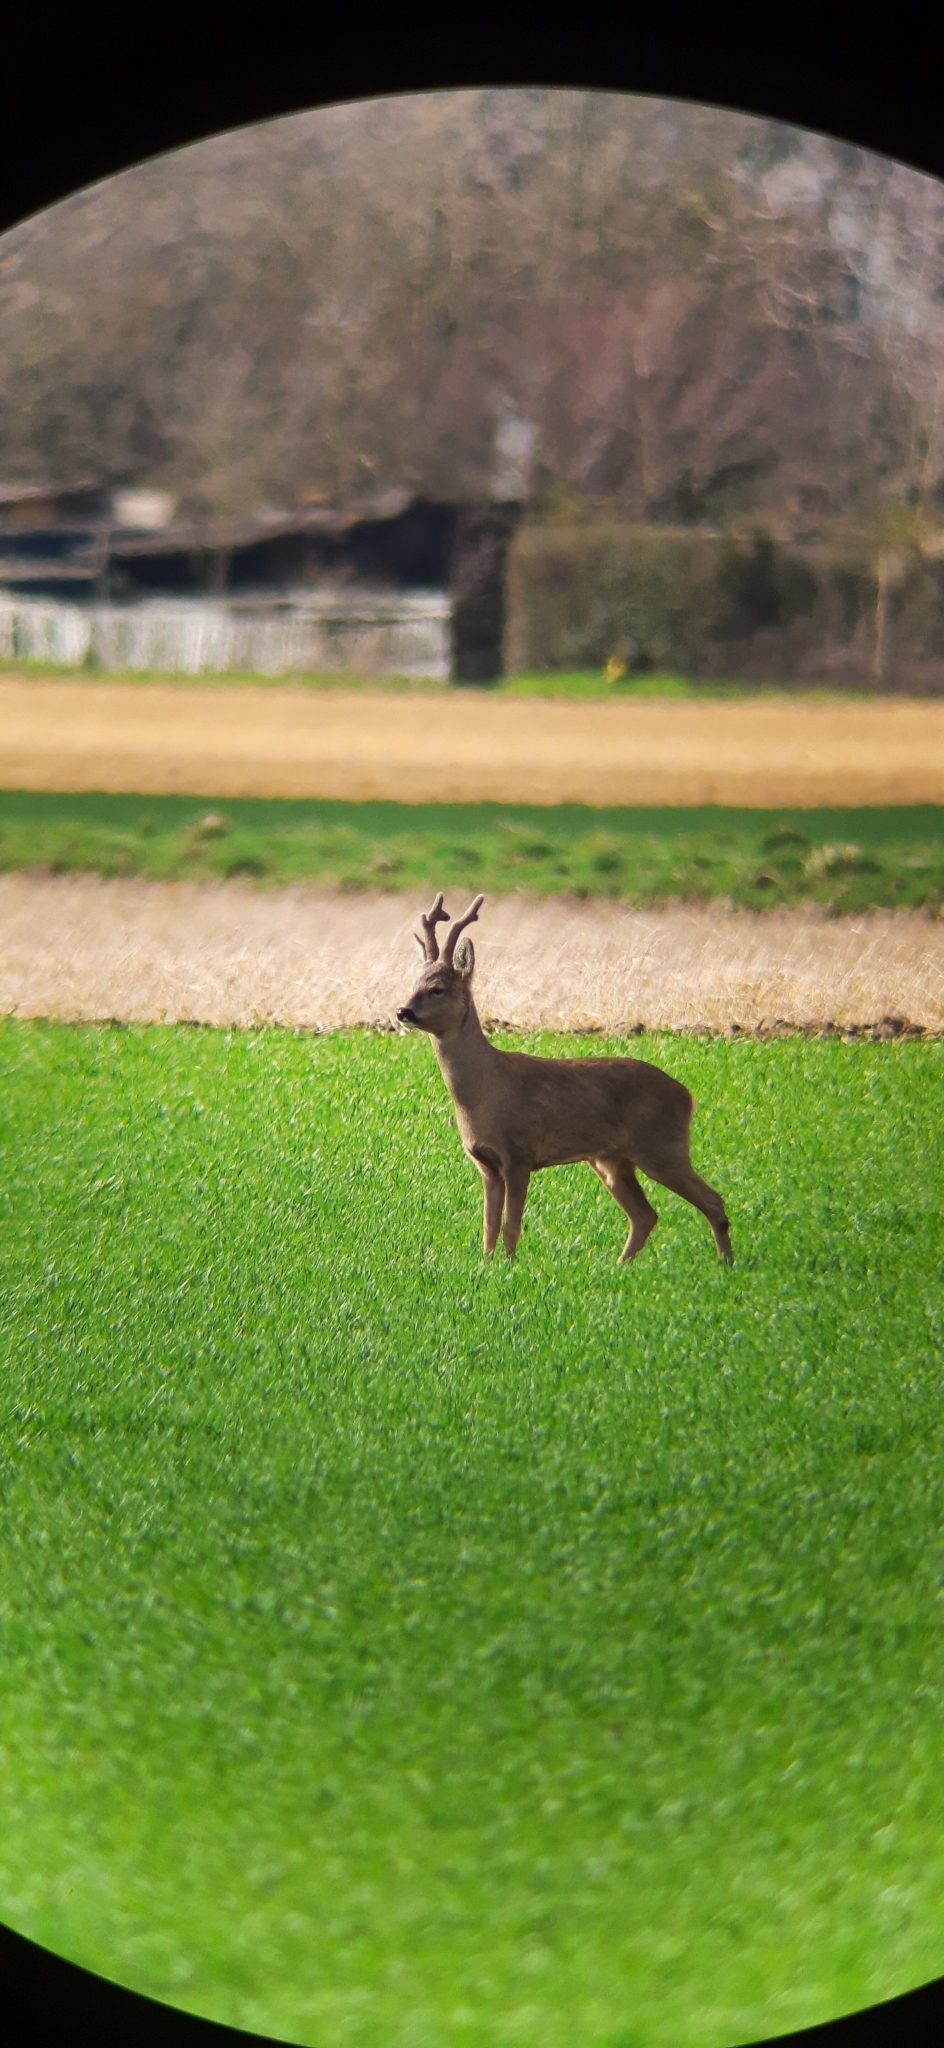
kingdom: Animalia
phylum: Chordata
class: Mammalia
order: Artiodactyla
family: Cervidae
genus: Capreolus
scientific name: Capreolus capreolus
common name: Western roe deer
